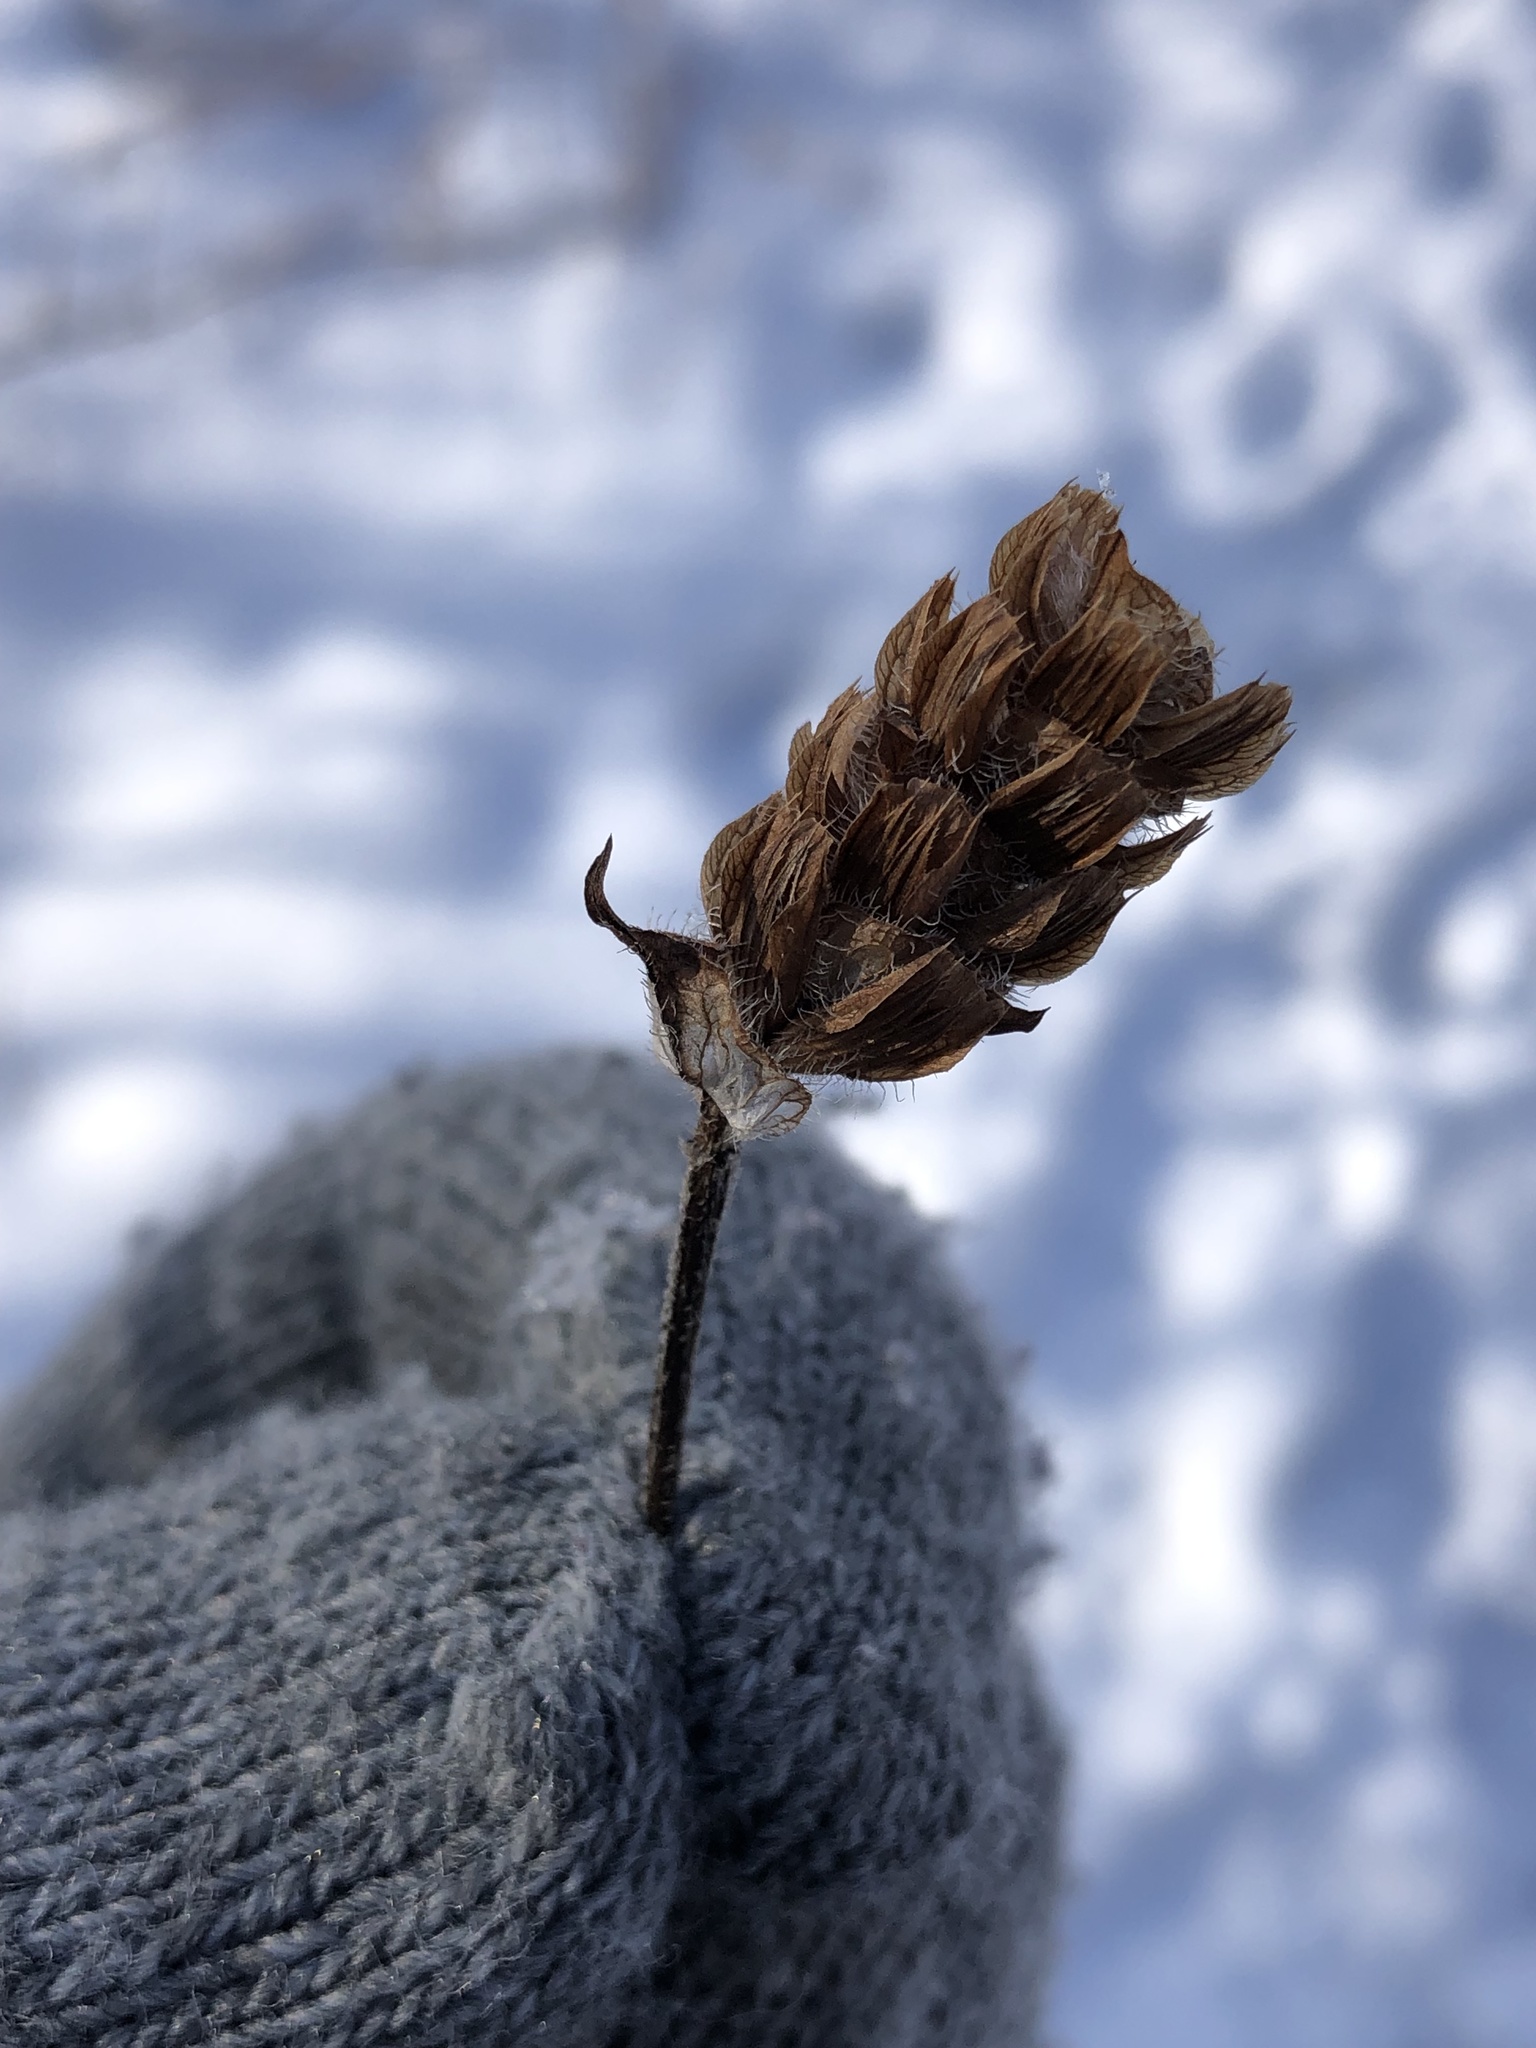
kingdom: Plantae
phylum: Tracheophyta
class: Magnoliopsida
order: Lamiales
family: Lamiaceae
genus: Prunella
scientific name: Prunella vulgaris
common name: Heal-all
